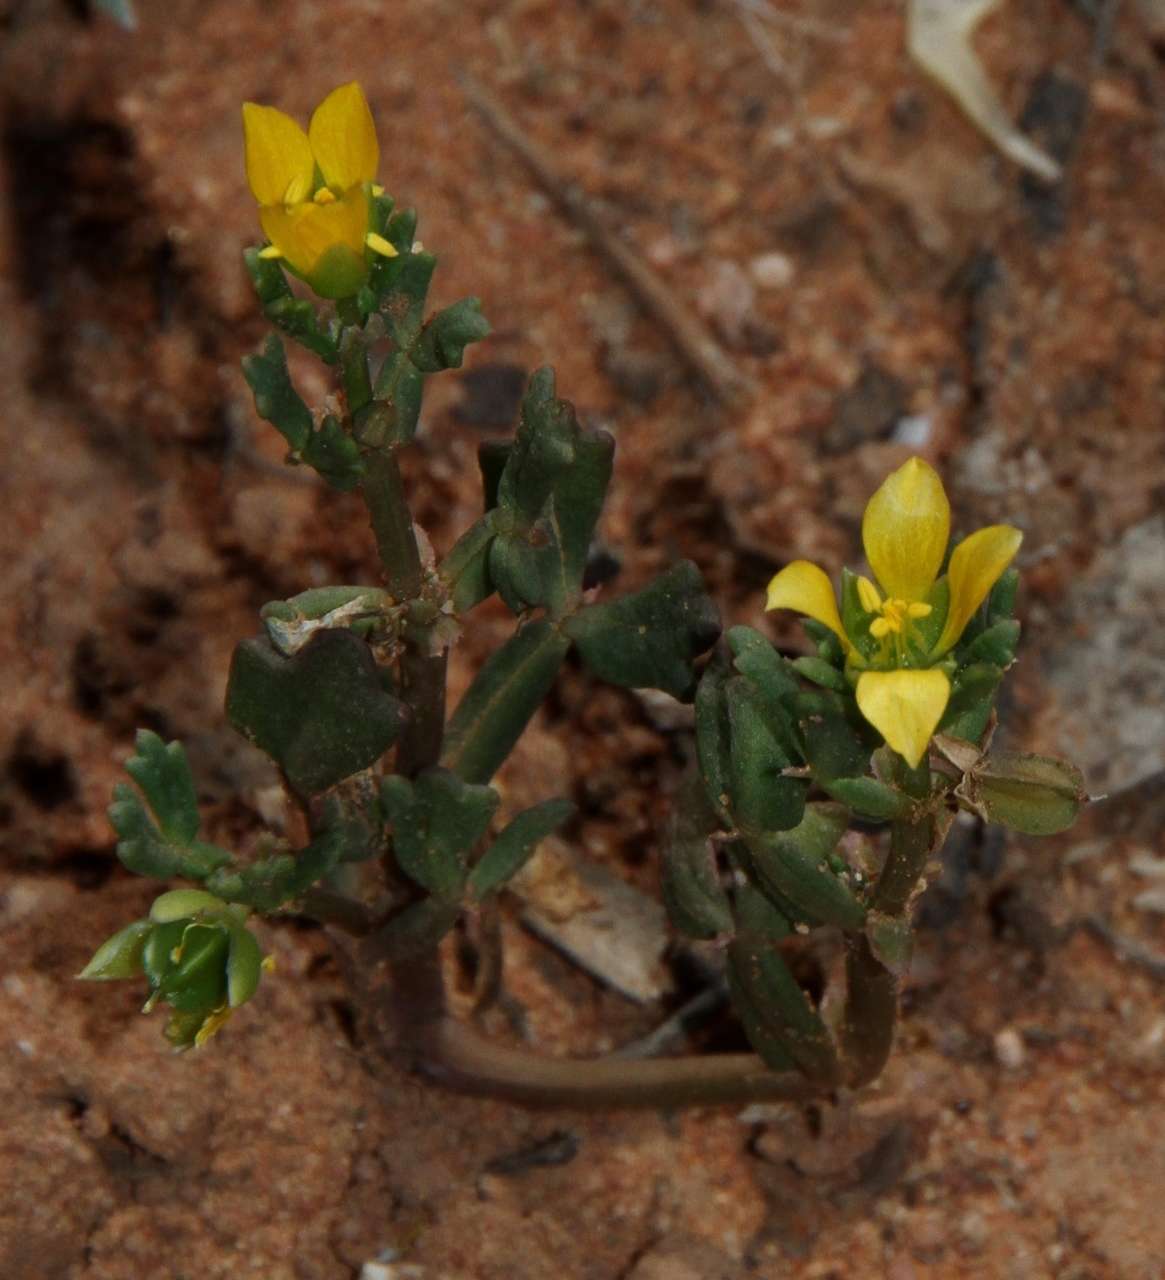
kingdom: Plantae
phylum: Tracheophyta
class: Magnoliopsida
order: Zygophyllales
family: Zygophyllaceae
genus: Roepera
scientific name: Roepera crenata
